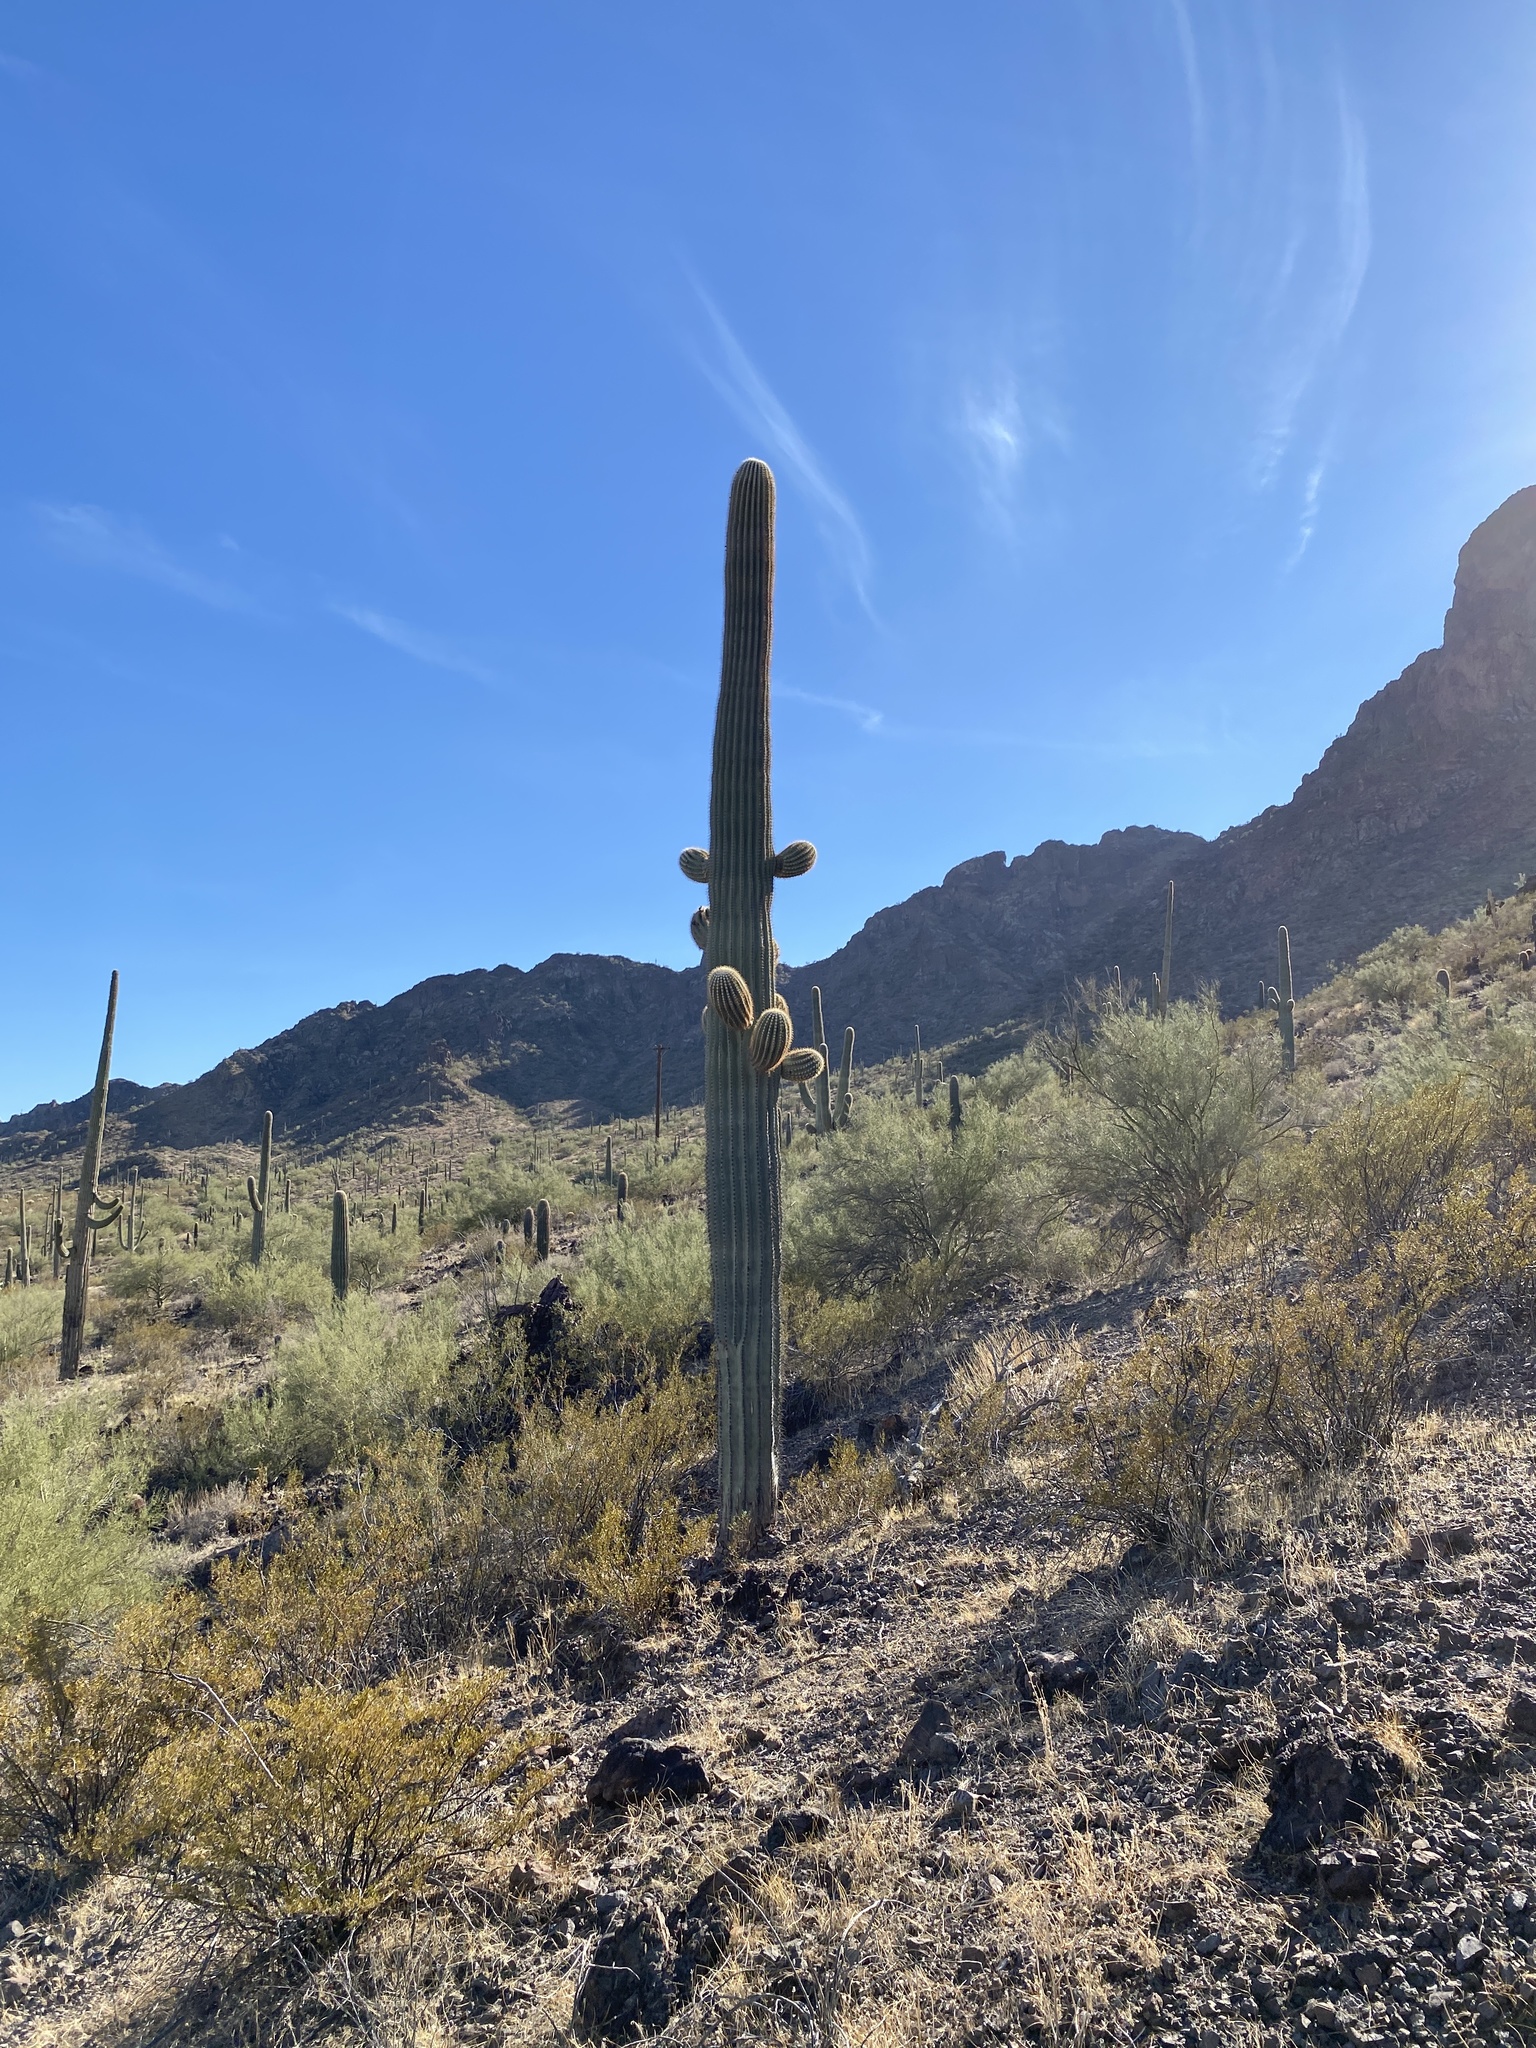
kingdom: Plantae
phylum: Tracheophyta
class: Magnoliopsida
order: Caryophyllales
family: Cactaceae
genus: Carnegiea
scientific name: Carnegiea gigantea
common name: Saguaro
